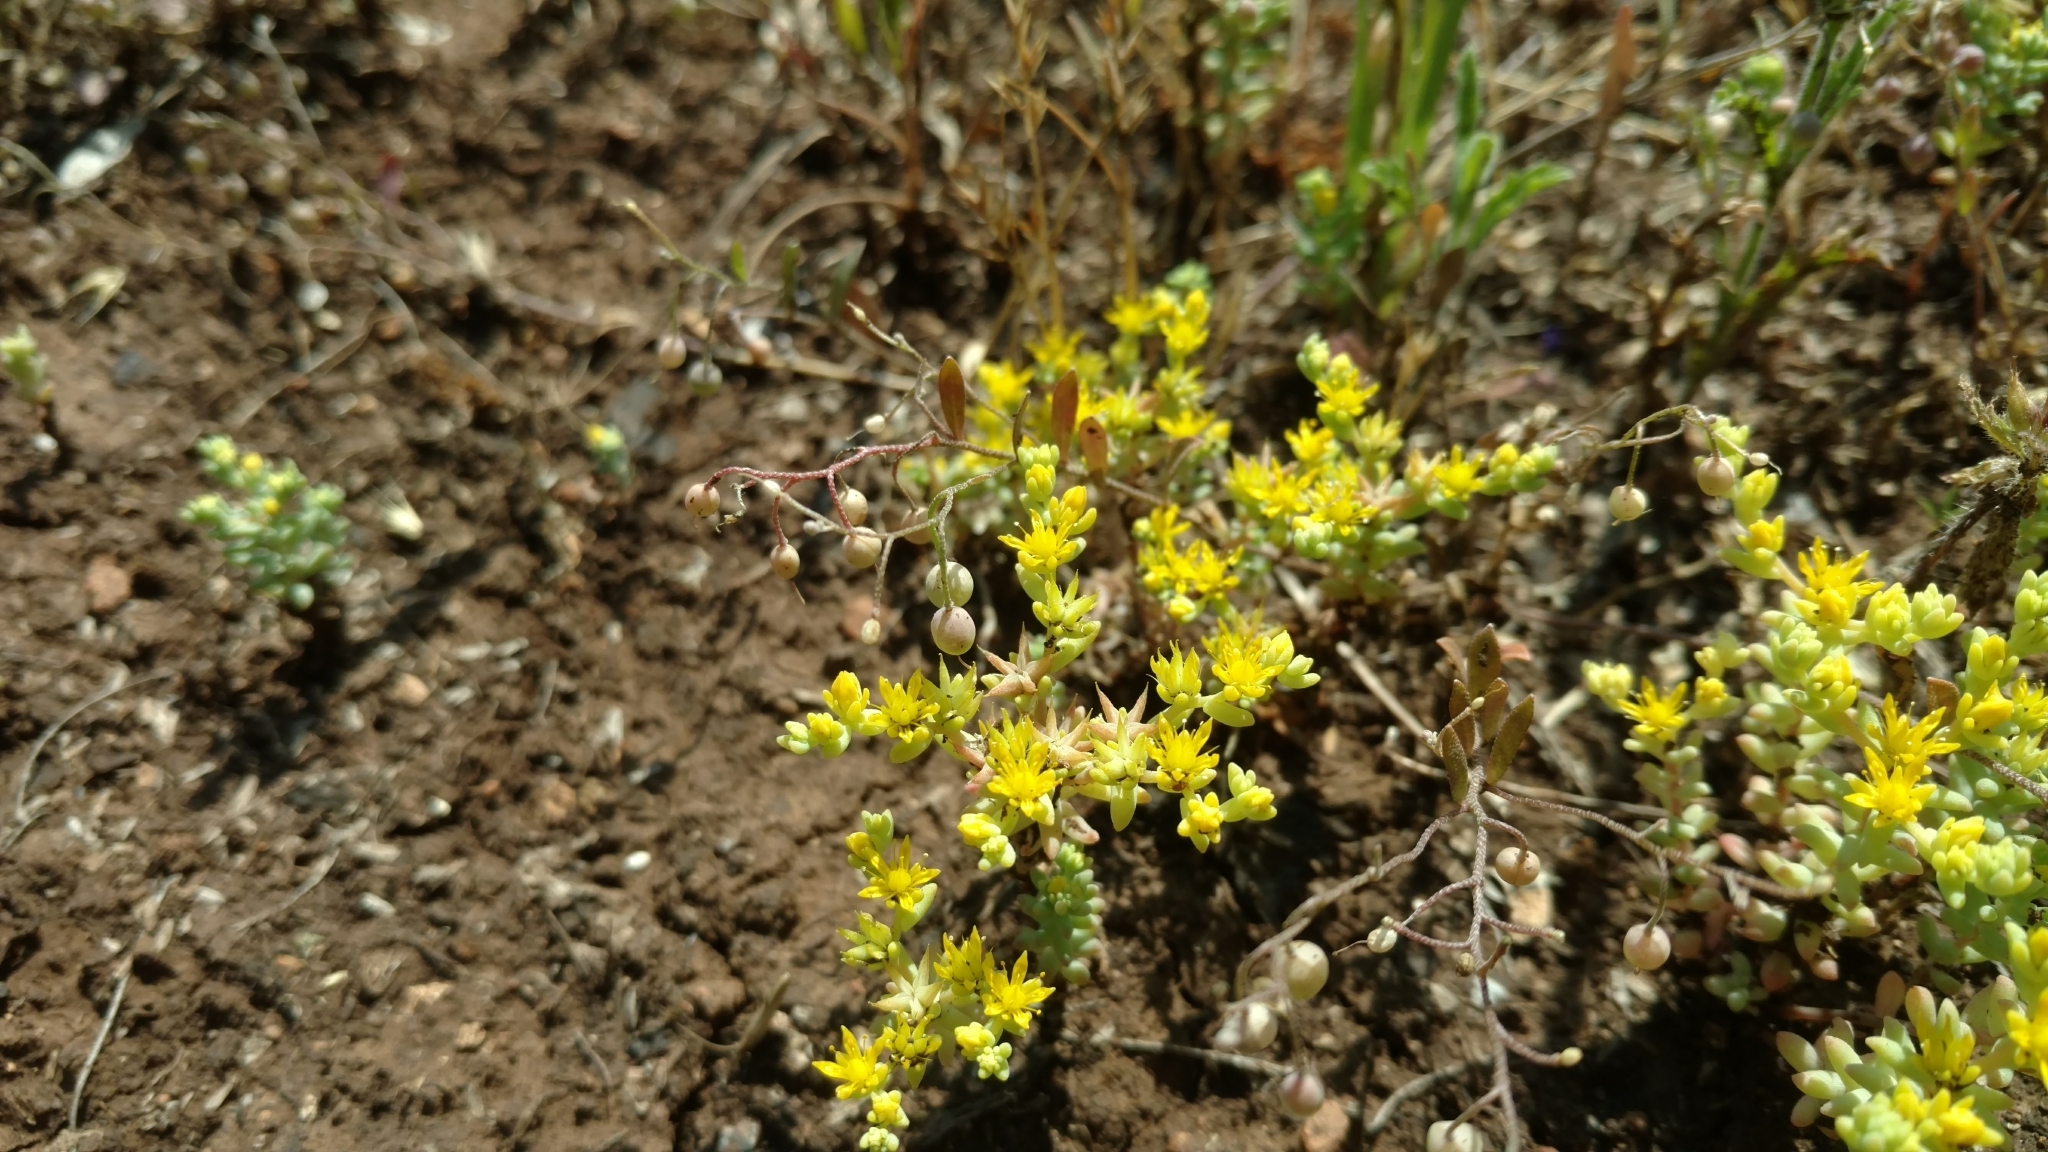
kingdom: Plantae
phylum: Tracheophyta
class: Magnoliopsida
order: Saxifragales
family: Crassulaceae
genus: Sedum
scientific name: Sedum nuttallii
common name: Yellow stonecrop
